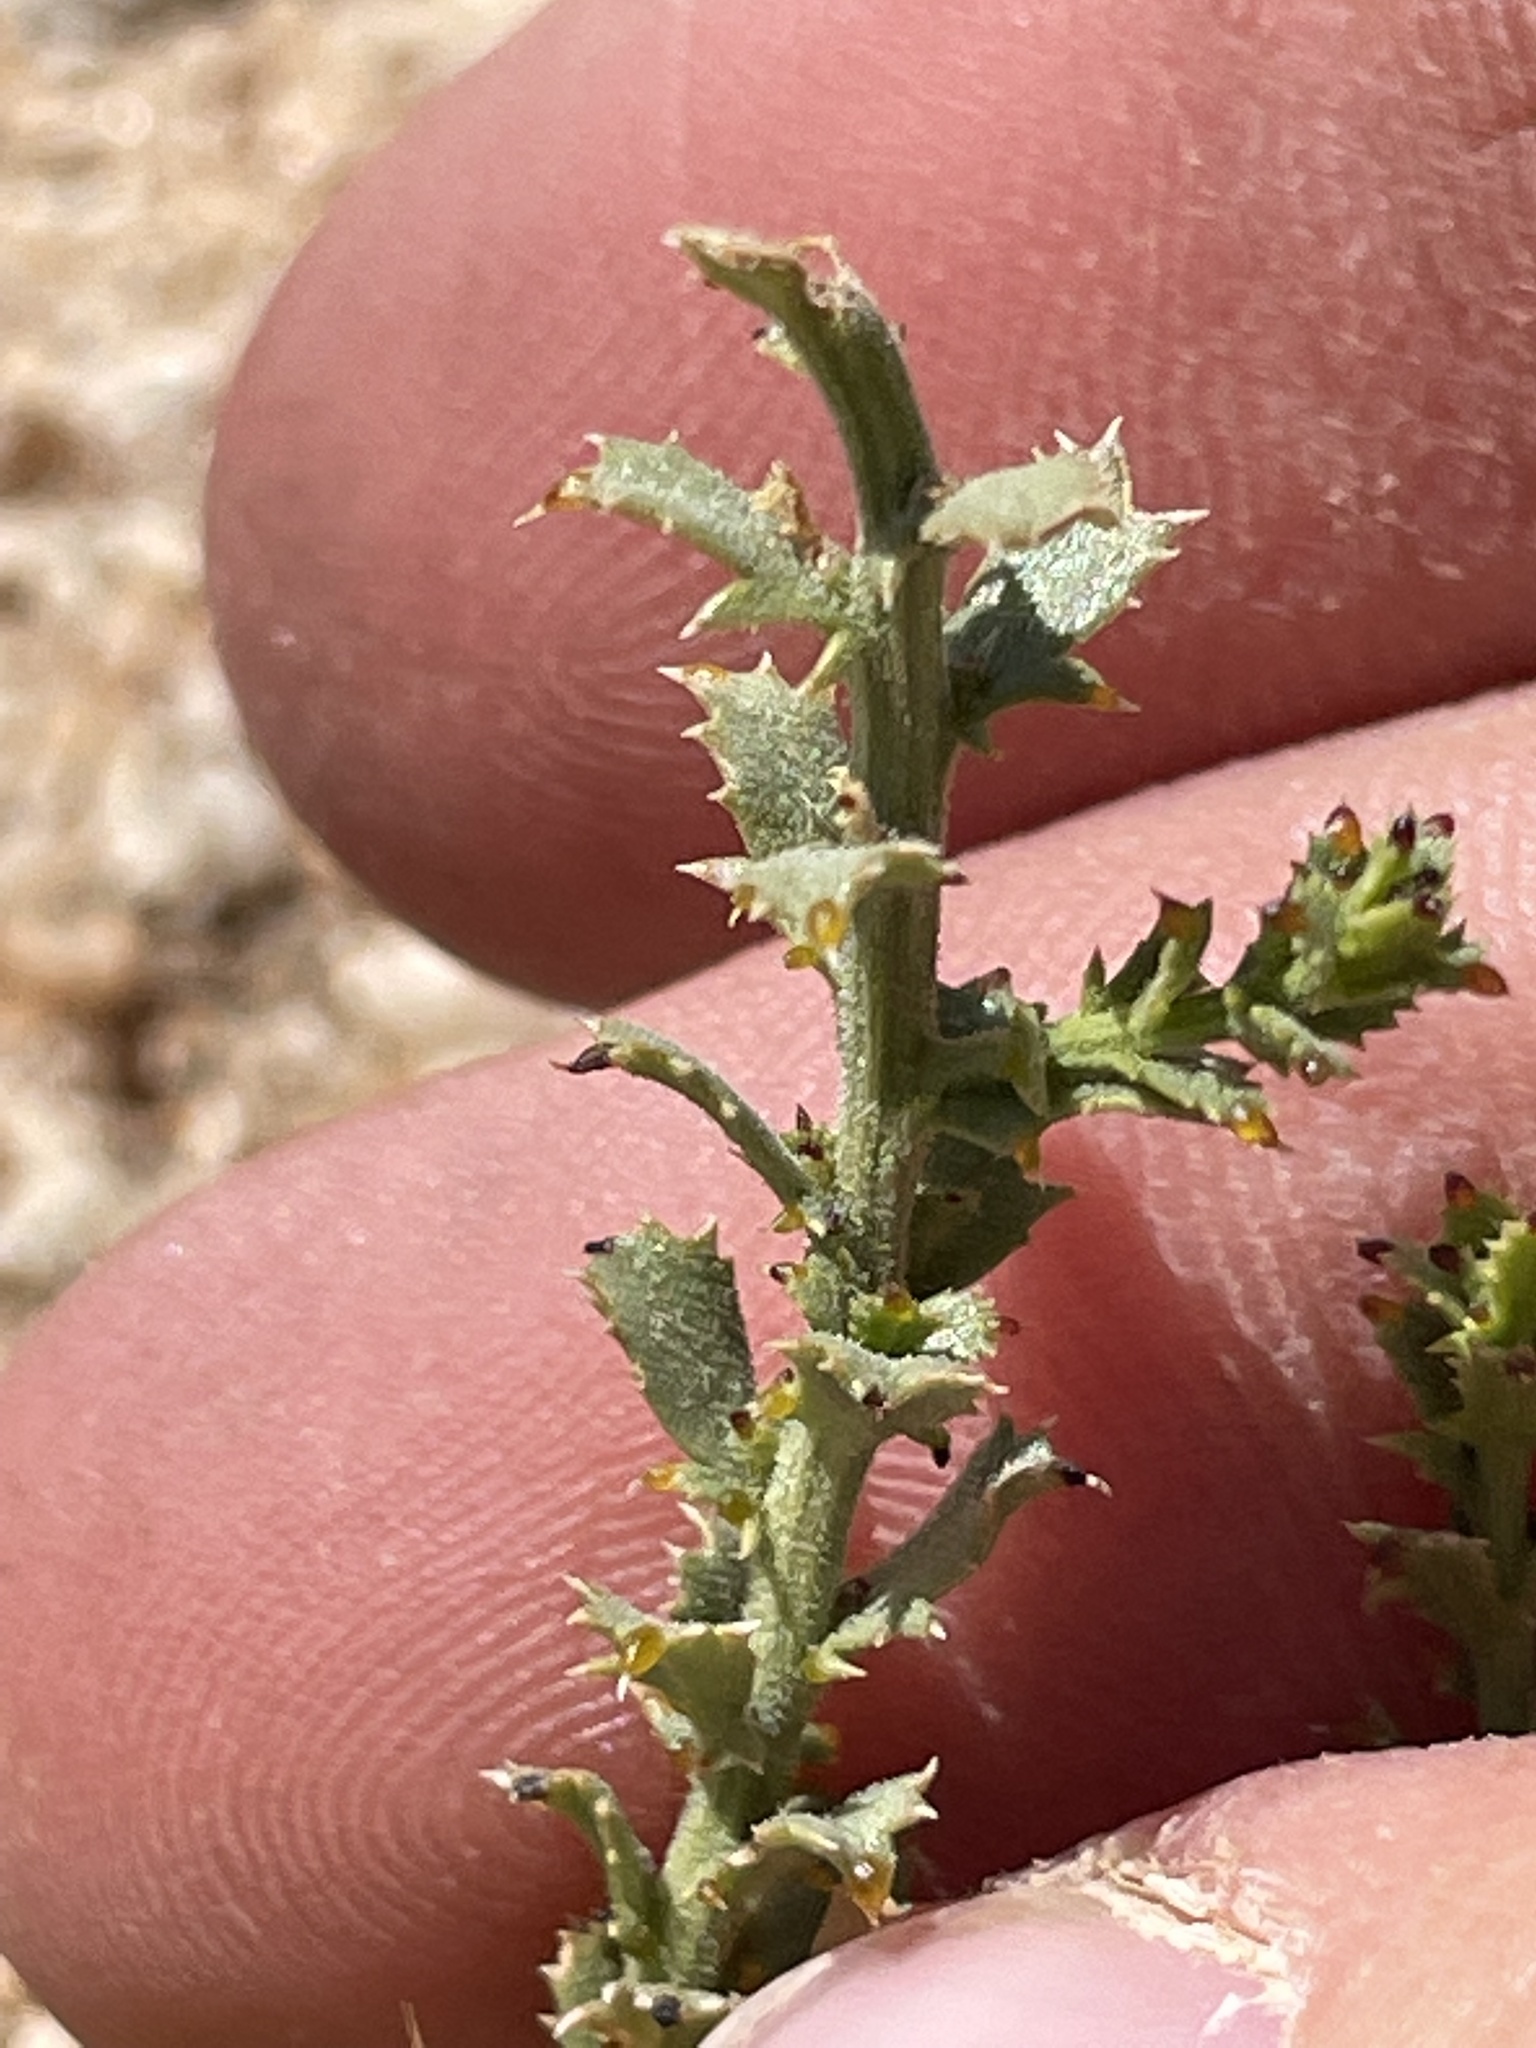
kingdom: Plantae
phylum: Tracheophyta
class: Magnoliopsida
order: Asterales
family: Asteraceae
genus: Adenophyllum
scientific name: Adenophyllum cooperi
